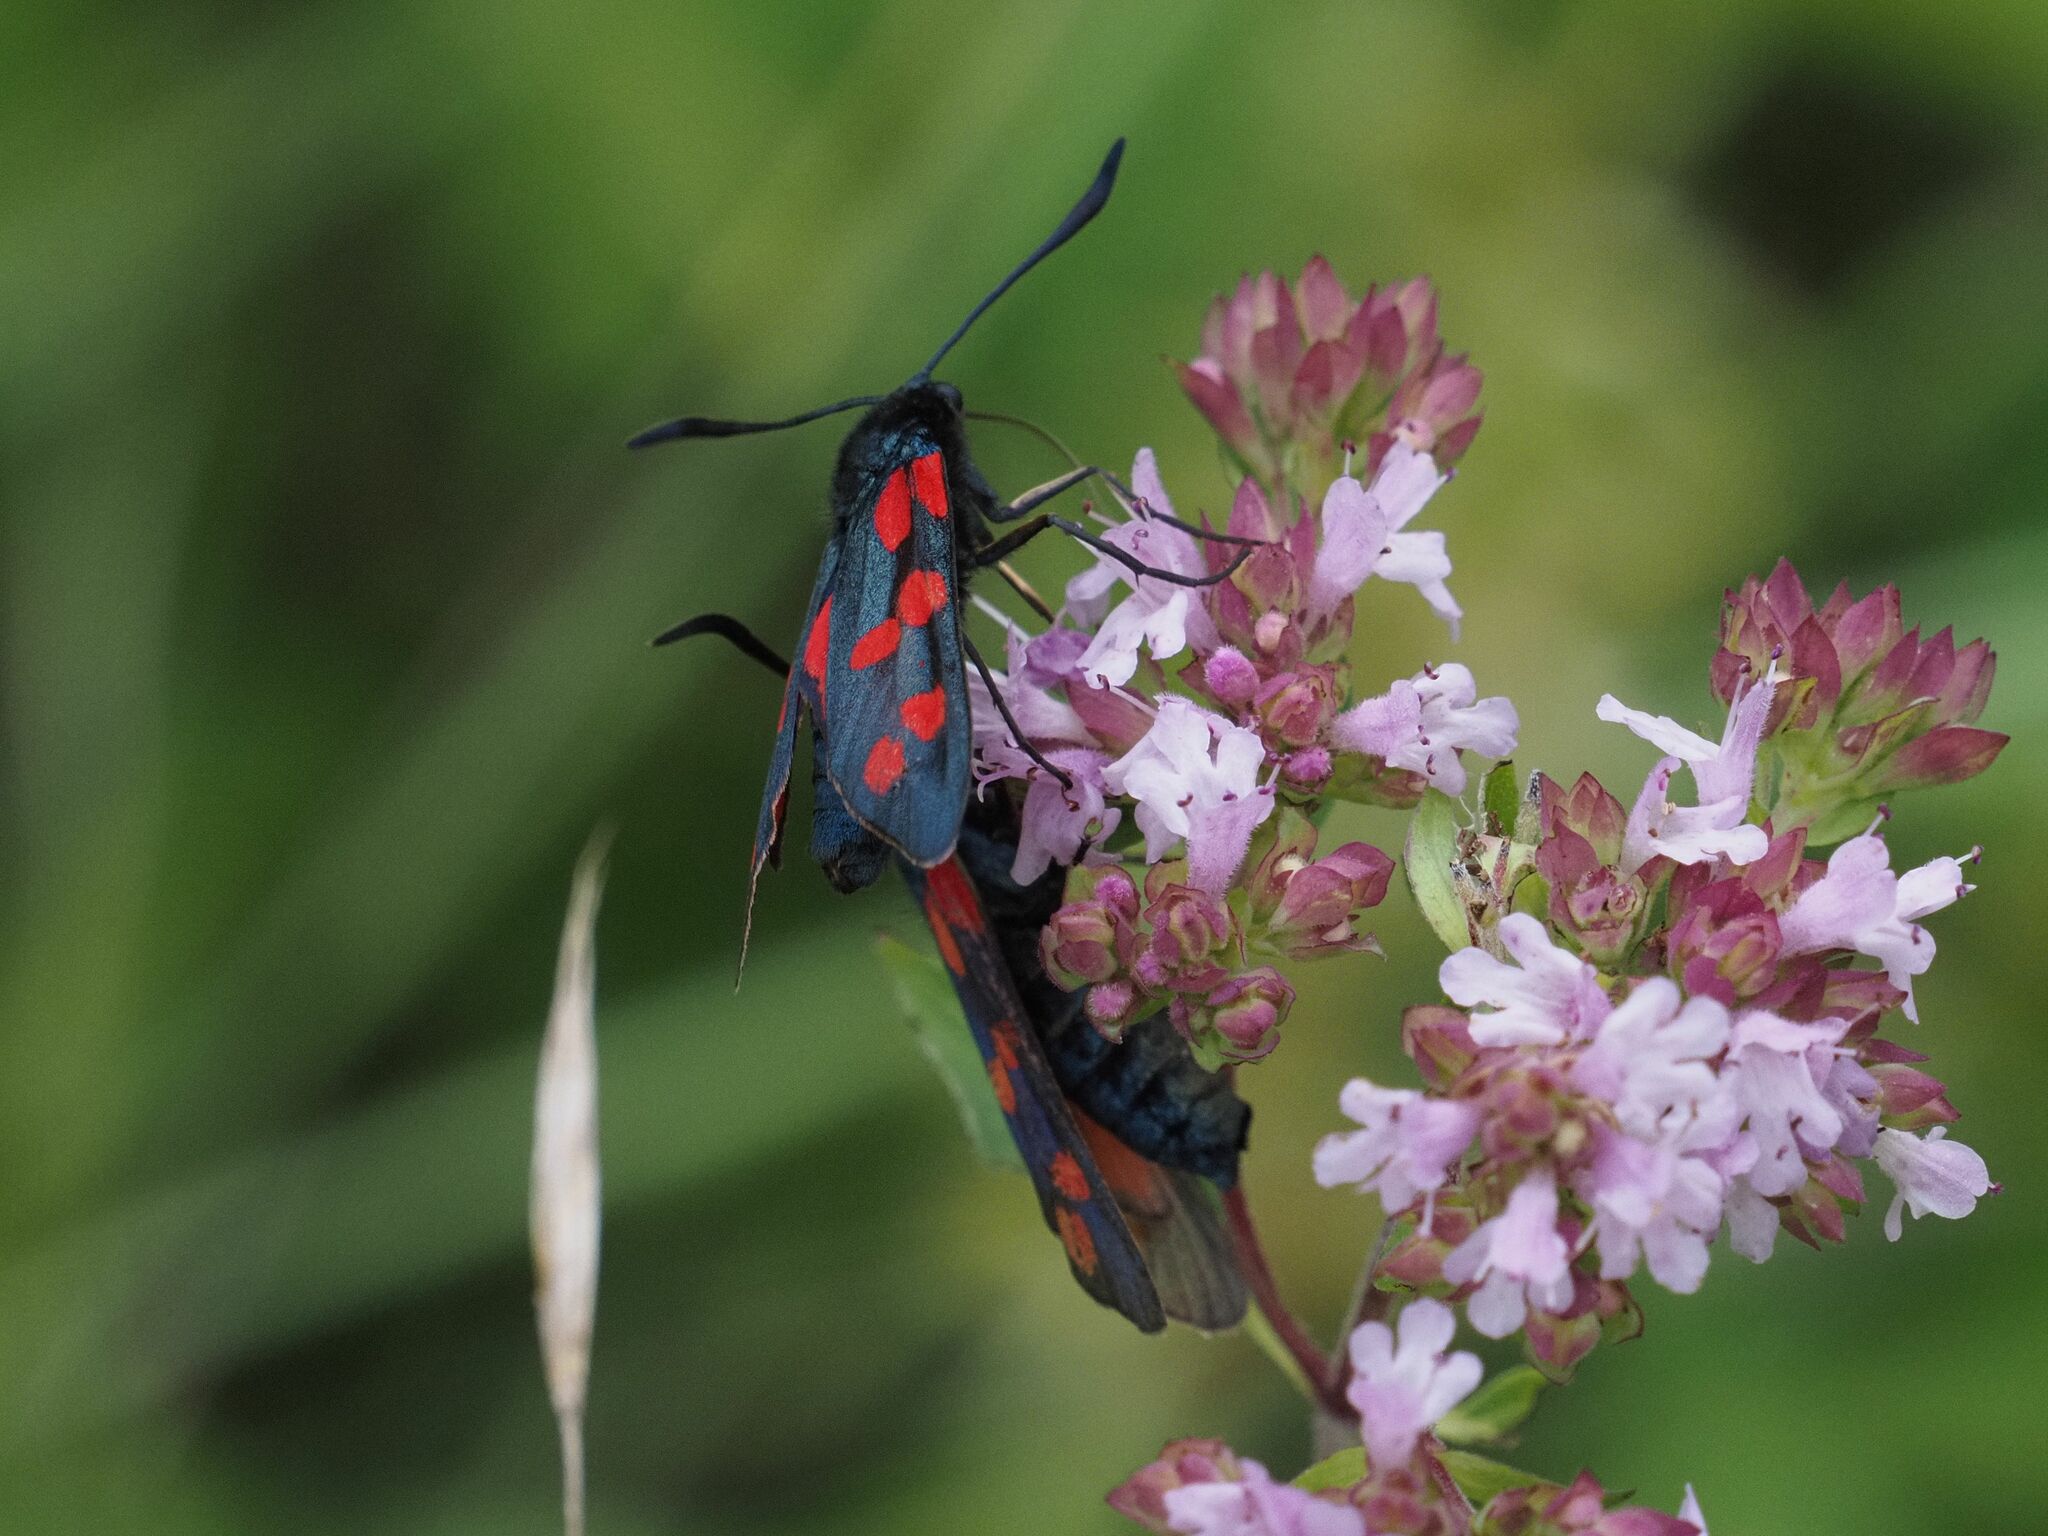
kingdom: Animalia
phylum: Arthropoda
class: Insecta
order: Lepidoptera
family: Zygaenidae
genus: Zygaena
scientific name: Zygaena filipendulae
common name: Six-spot burnet
